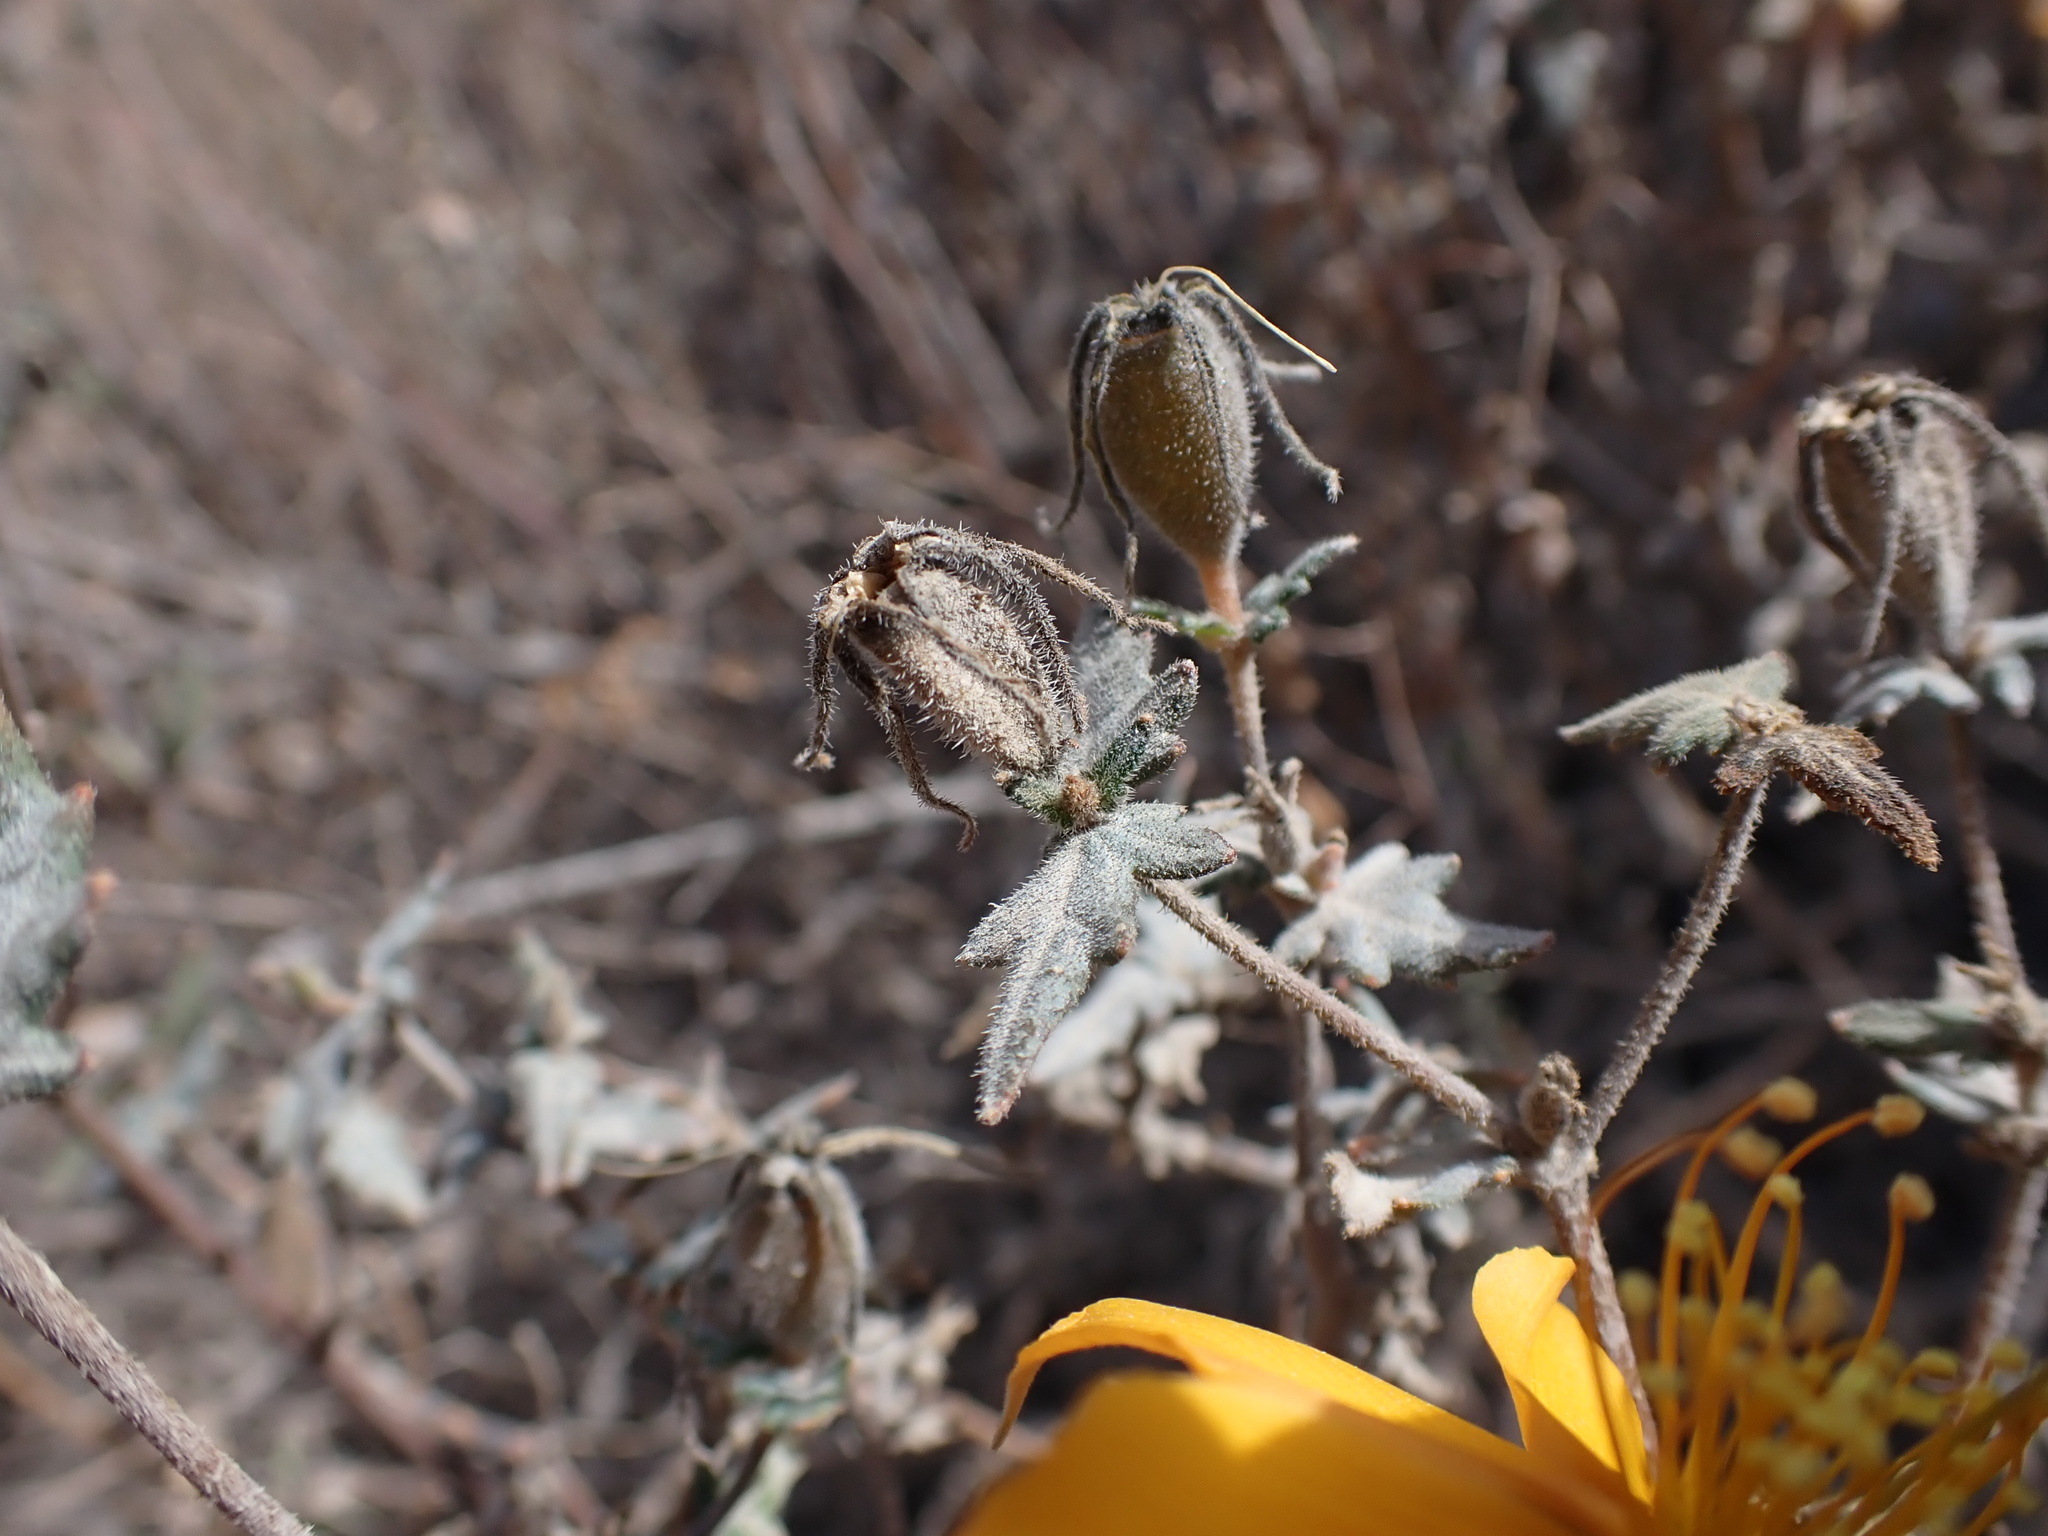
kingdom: Plantae
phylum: Tracheophyta
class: Magnoliopsida
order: Cornales
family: Loasaceae
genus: Mentzelia
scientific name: Mentzelia scabra
